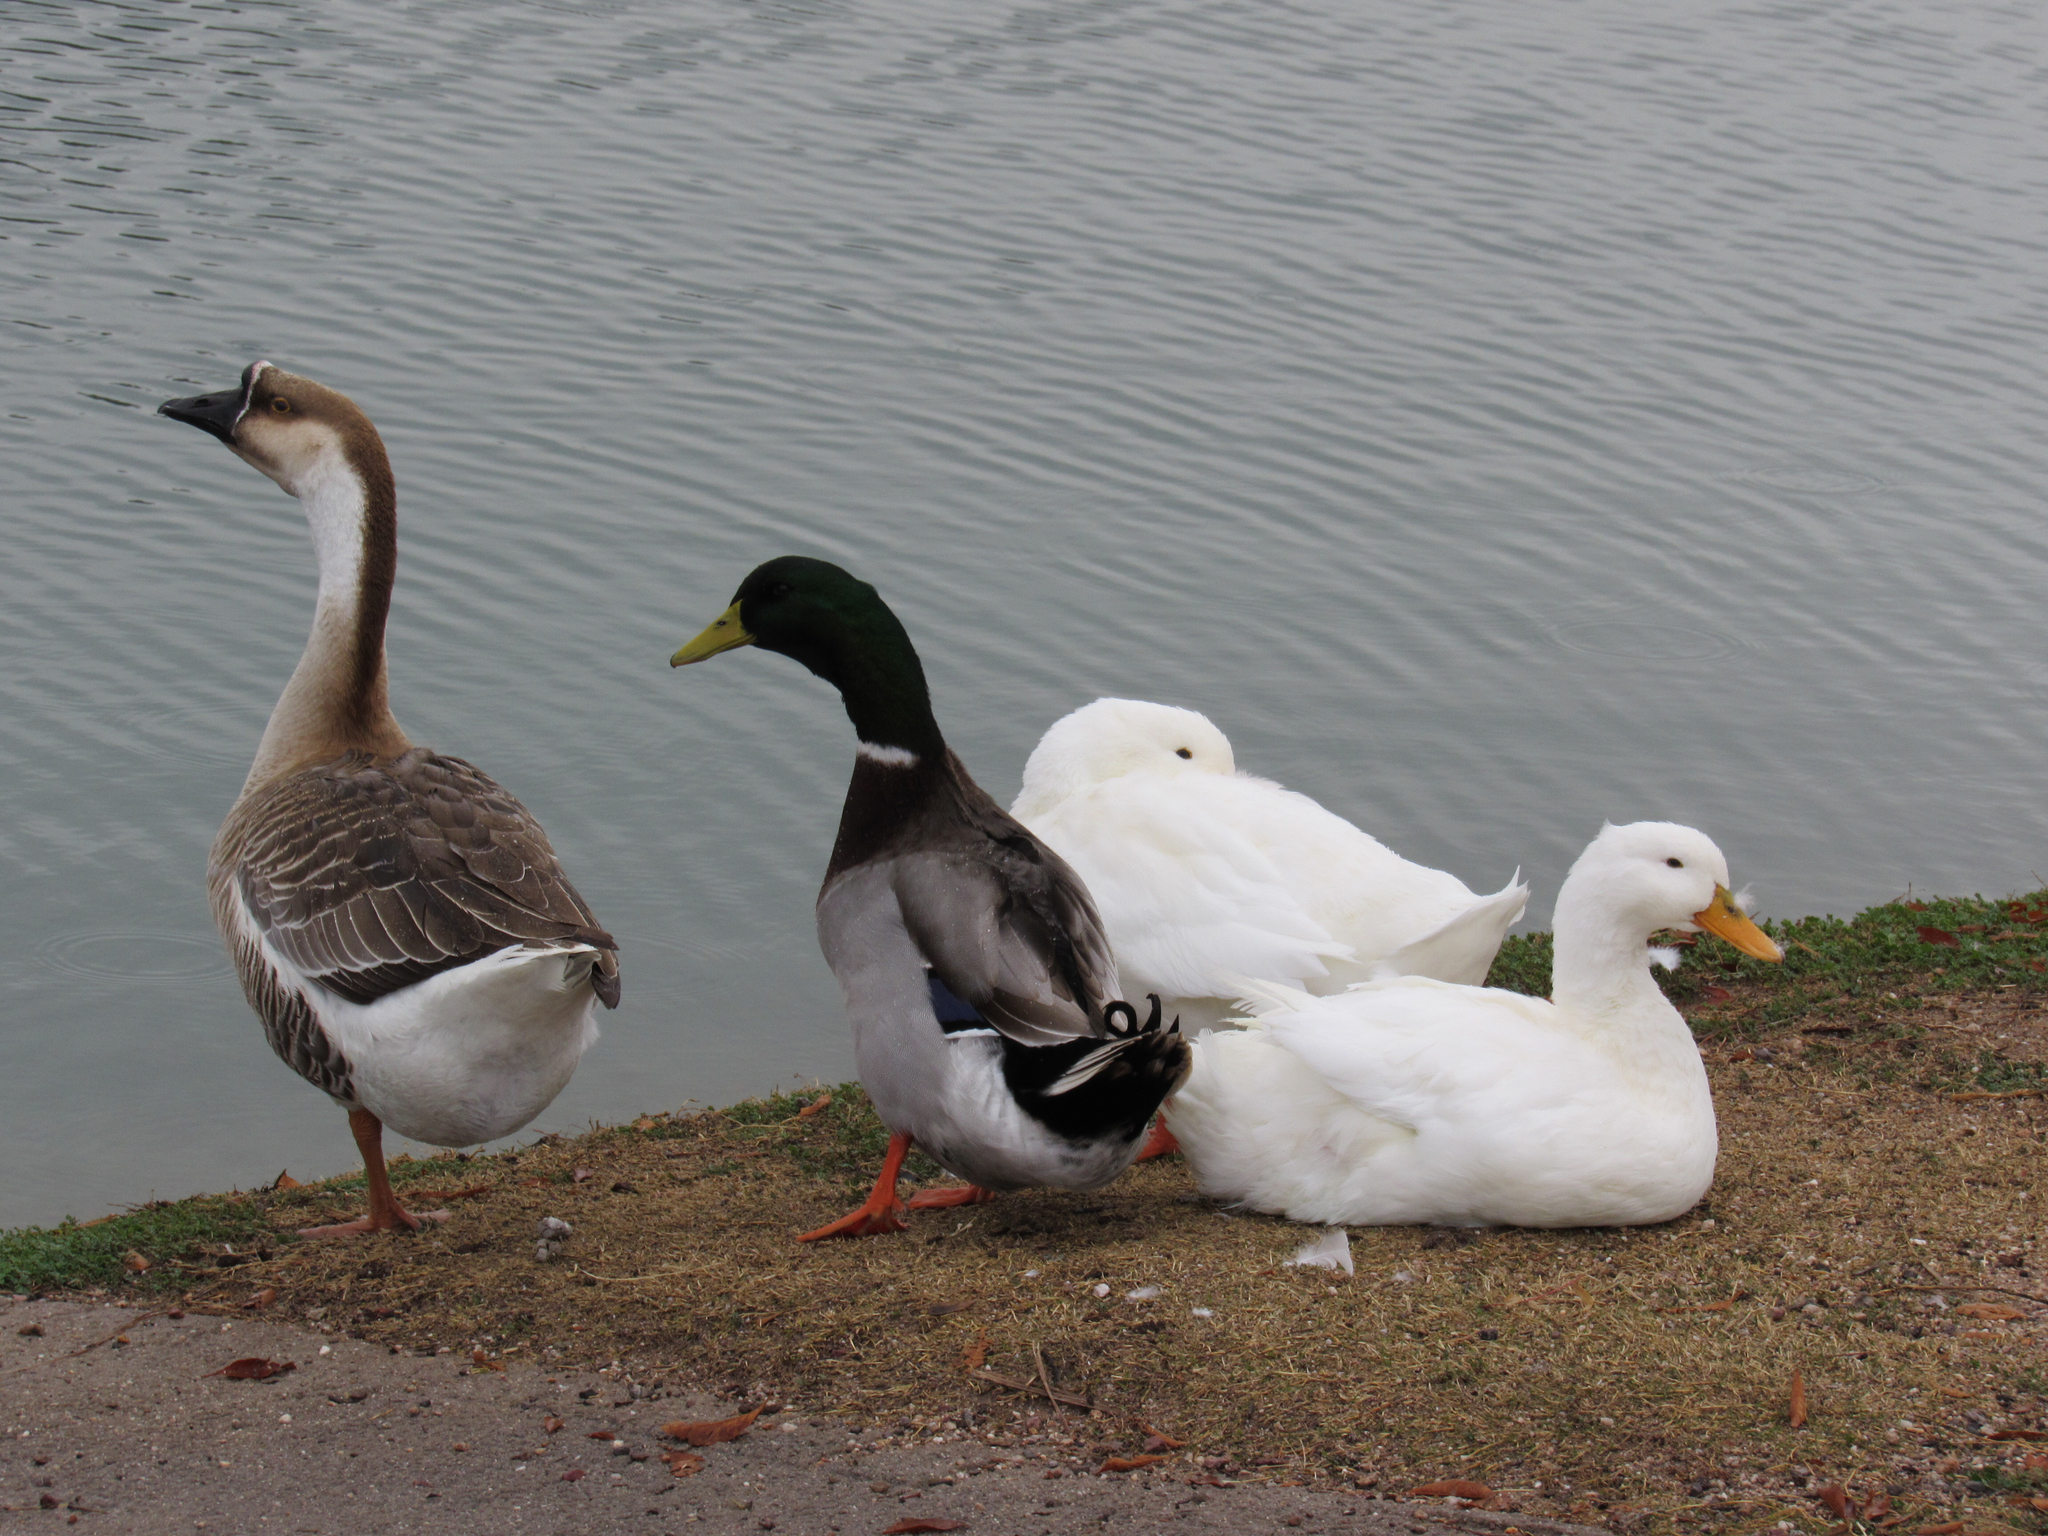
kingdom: Animalia
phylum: Chordata
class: Aves
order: Anseriformes
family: Anatidae
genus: Anas
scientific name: Anas platyrhynchos
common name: Mallard
